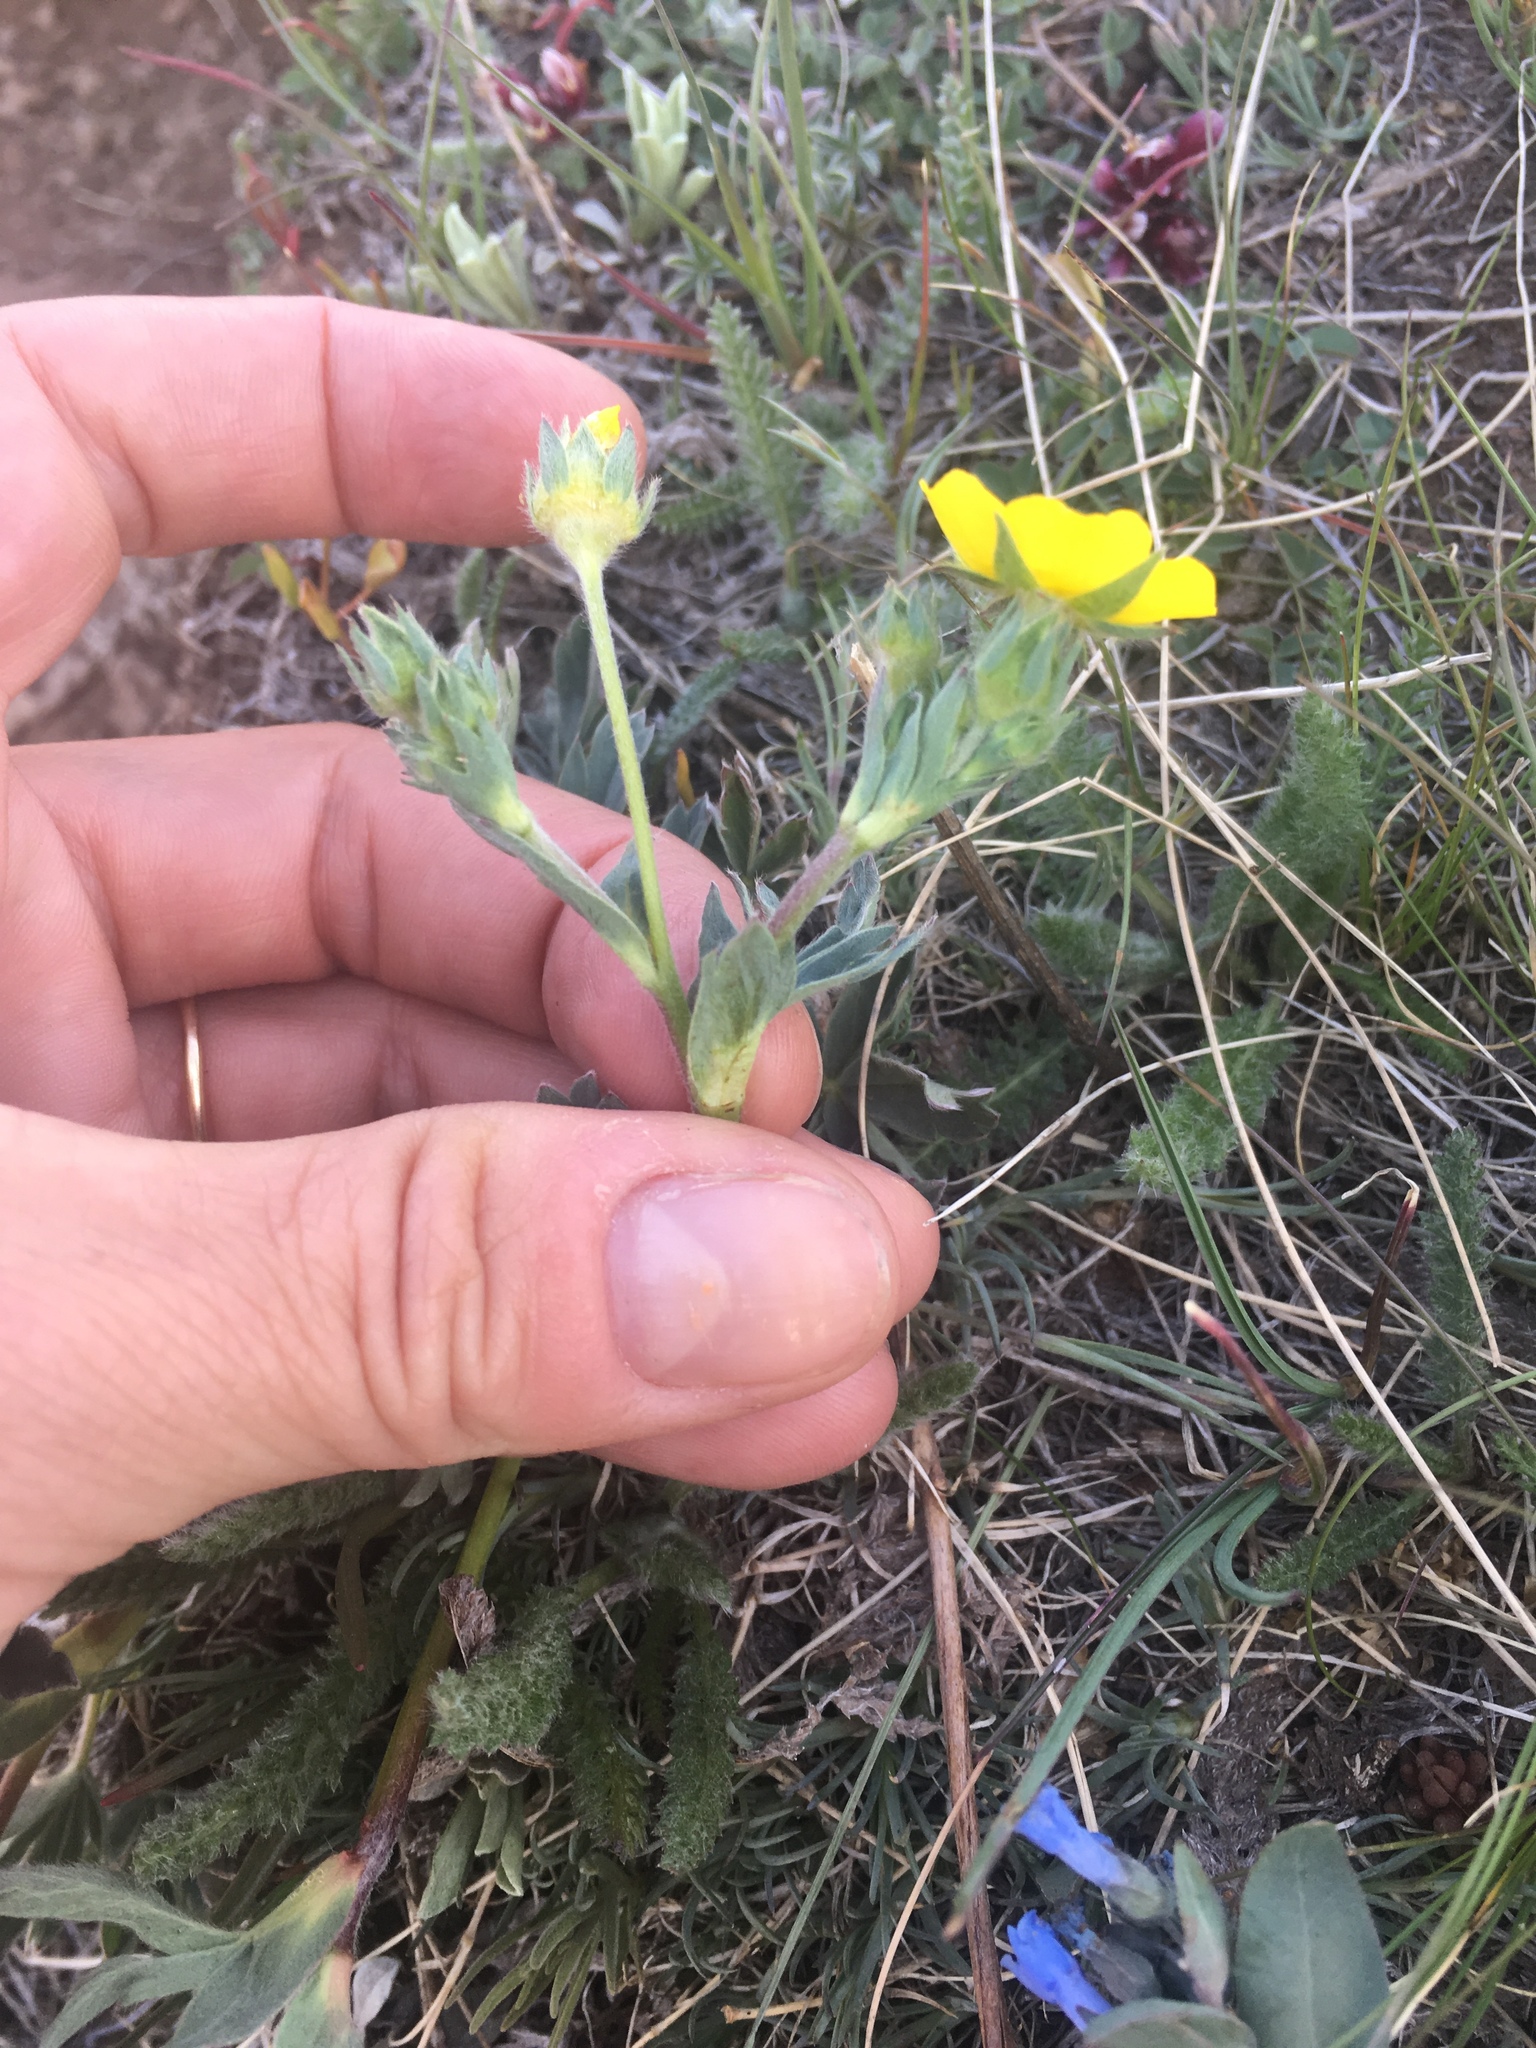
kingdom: Plantae
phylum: Tracheophyta
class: Magnoliopsida
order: Rosales
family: Rosaceae
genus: Potentilla
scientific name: Potentilla glaucophylla
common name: Blue-leaved cinquefoil
